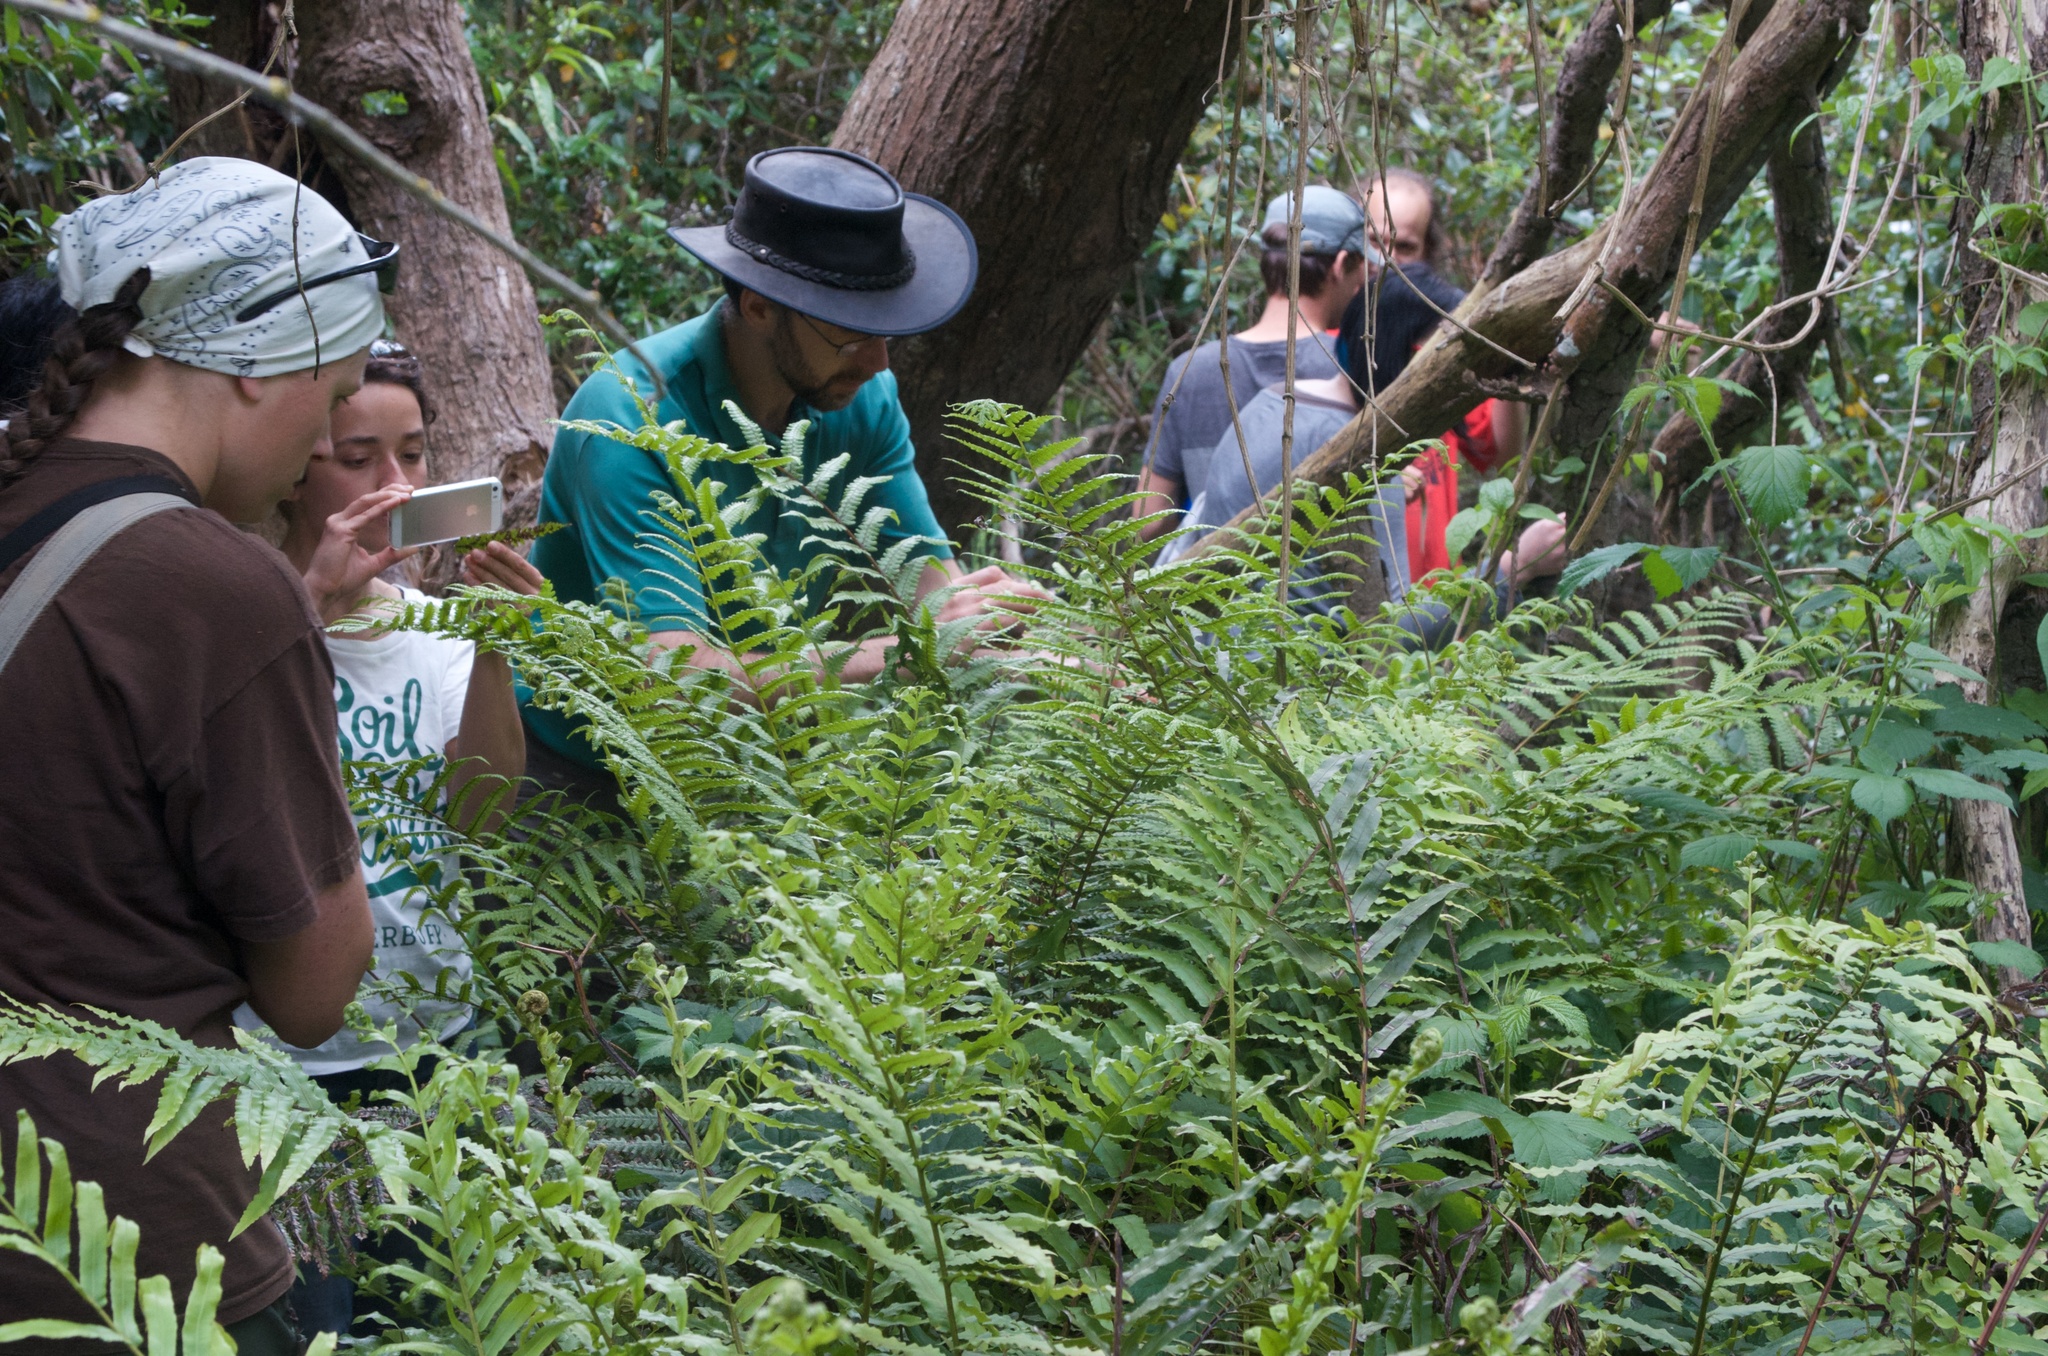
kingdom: Plantae
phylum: Tracheophyta
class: Polypodiopsida
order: Polypodiales
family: Thelypteridaceae
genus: Pakau
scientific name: Pakau pennigera
